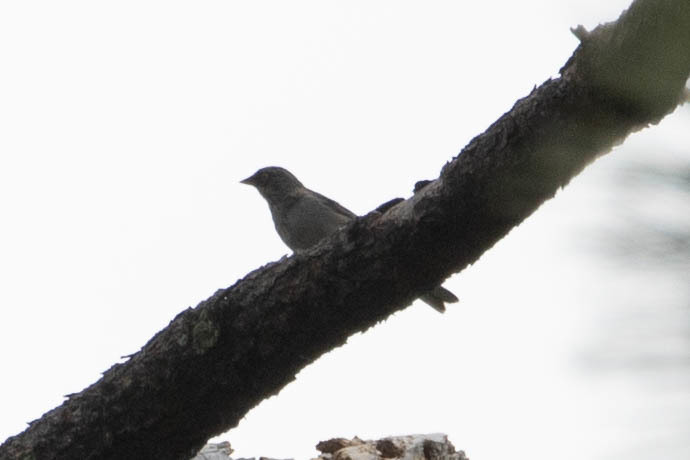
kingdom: Animalia
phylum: Chordata
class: Aves
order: Passeriformes
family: Passerellidae
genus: Junco
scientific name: Junco phaeonotus
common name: Yellow-eyed junco
